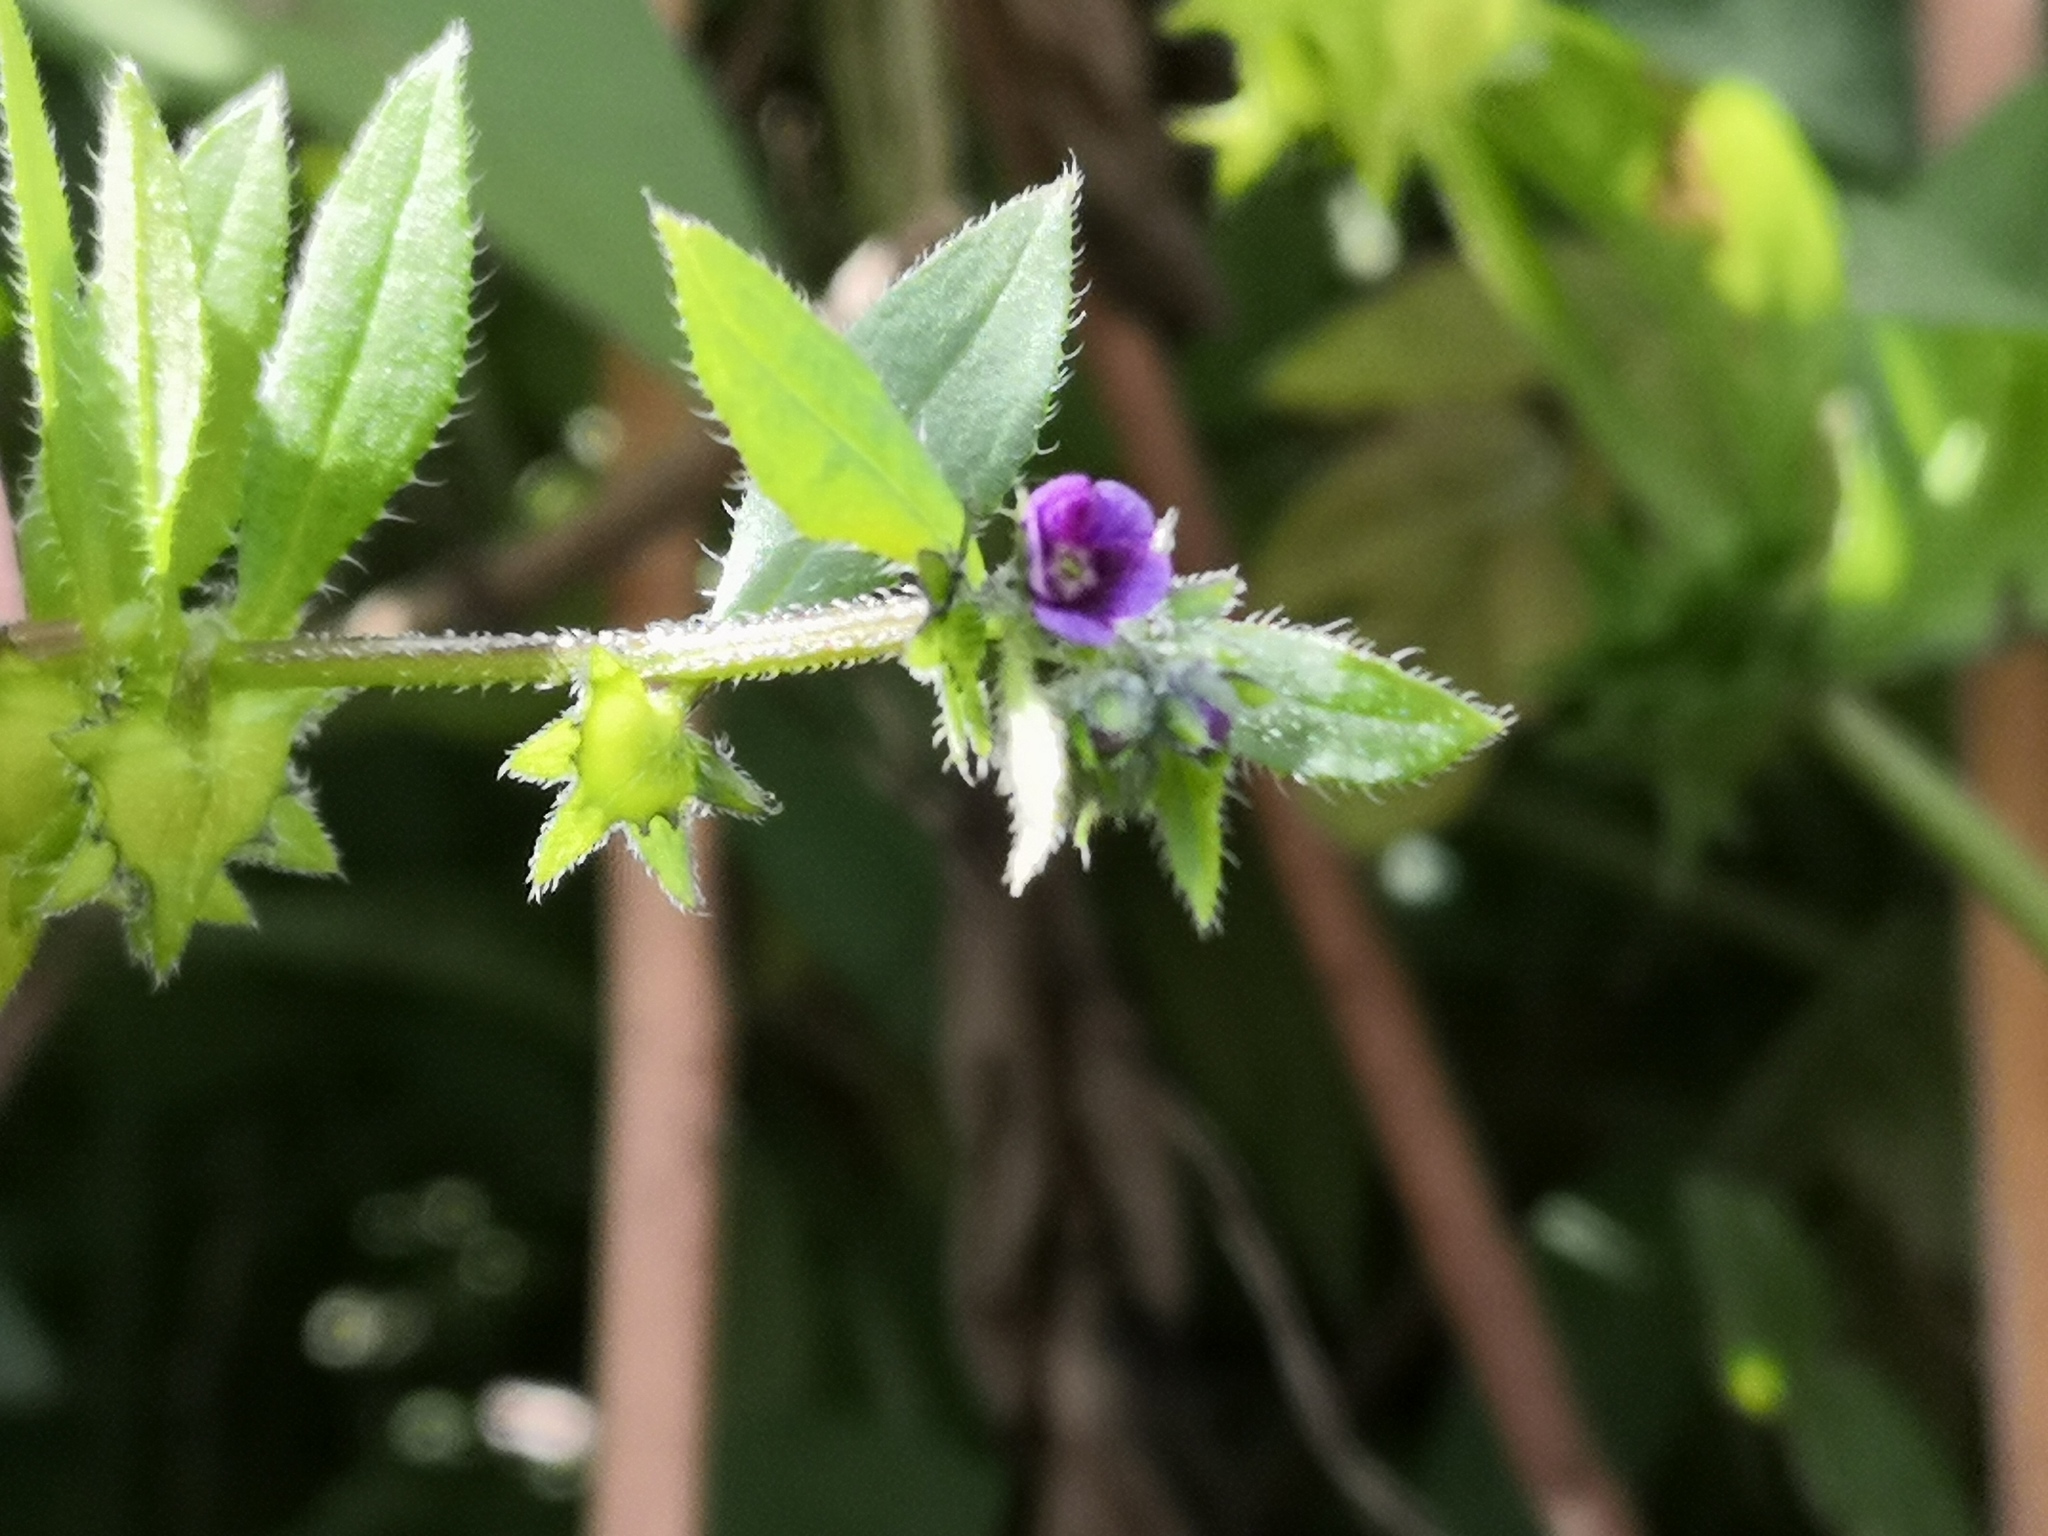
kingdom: Plantae
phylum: Tracheophyta
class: Magnoliopsida
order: Boraginales
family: Boraginaceae
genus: Asperugo
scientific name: Asperugo procumbens
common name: Madwort
